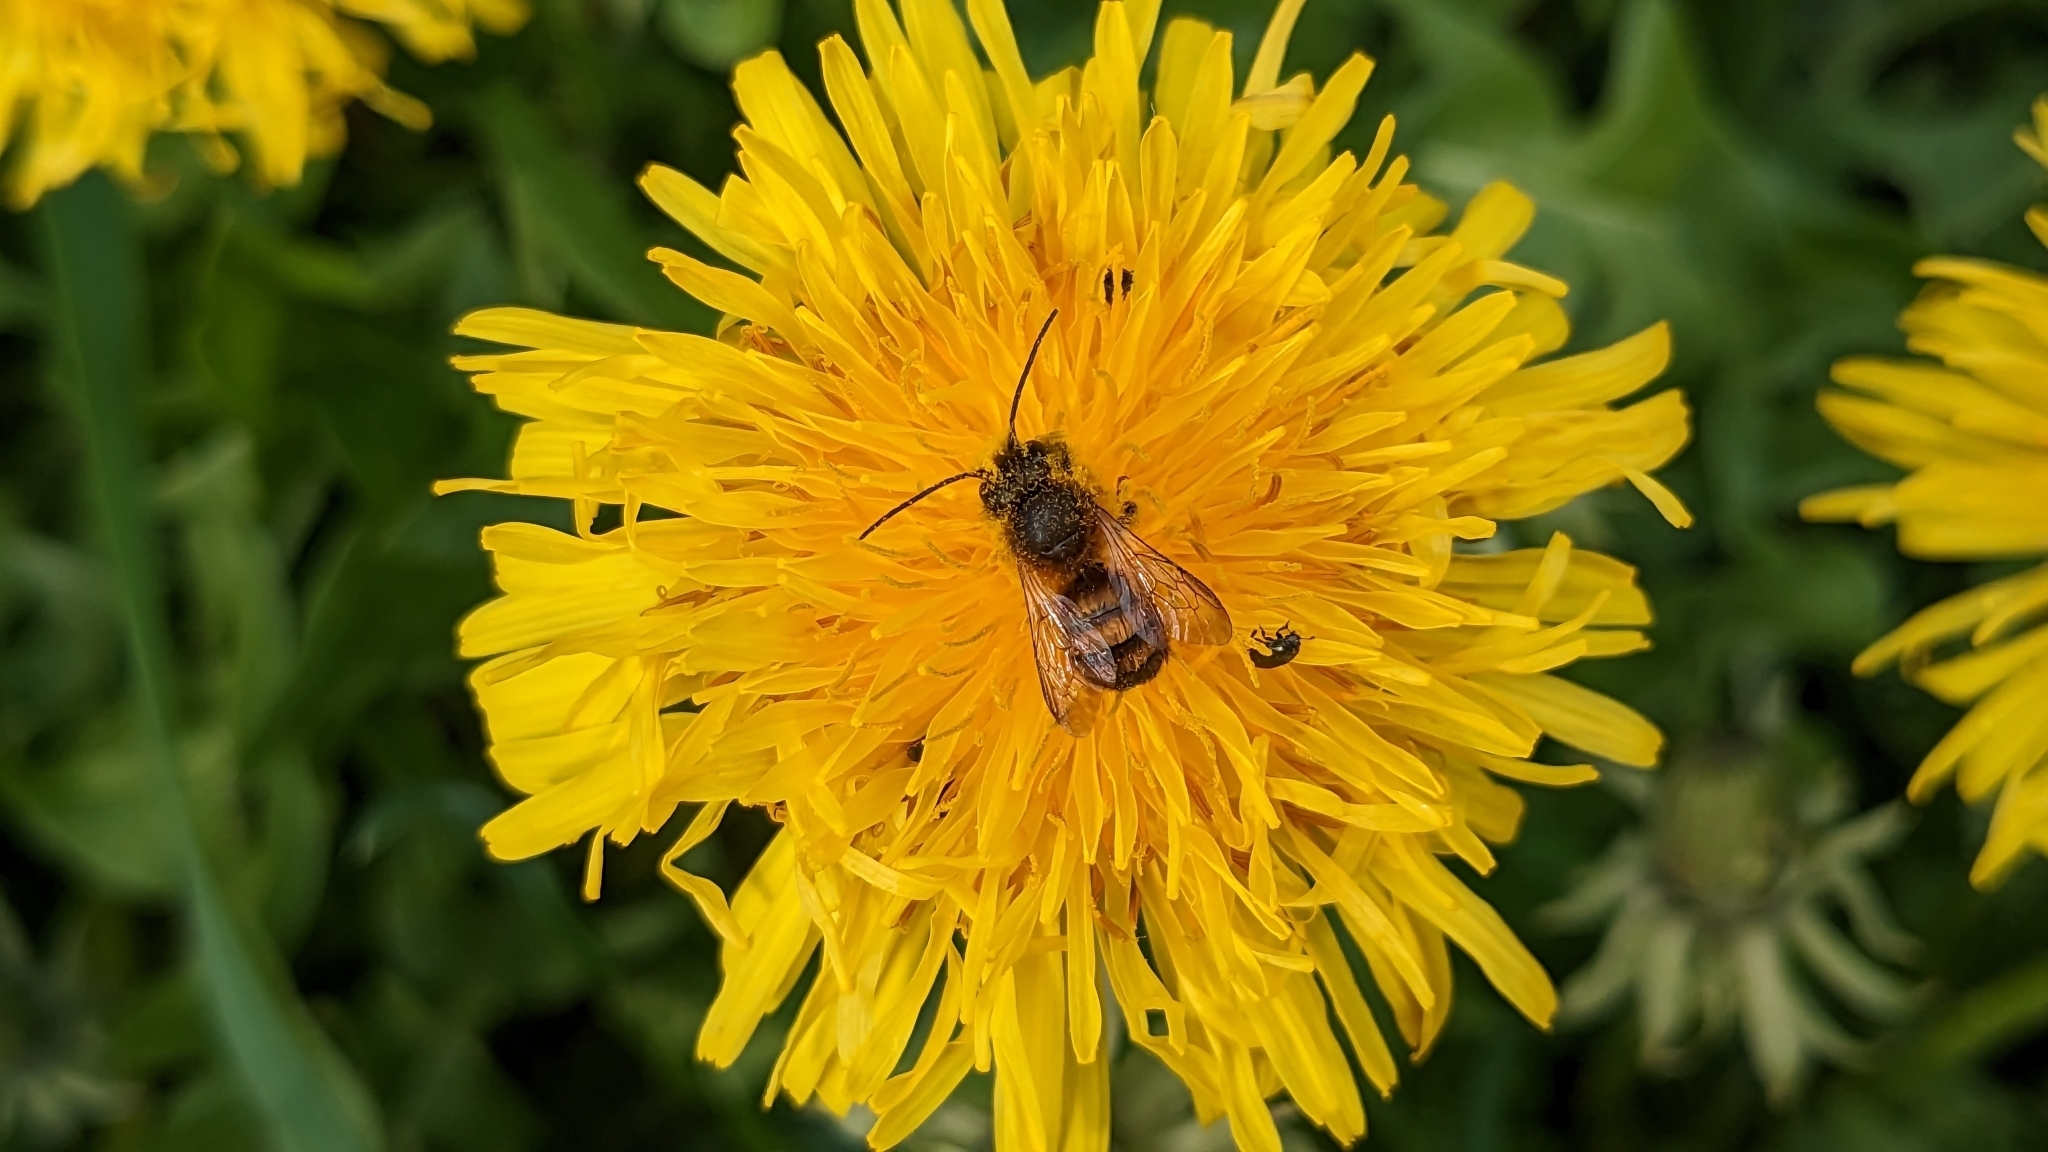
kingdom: Animalia
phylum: Arthropoda
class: Insecta
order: Hymenoptera
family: Megachilidae
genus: Osmia
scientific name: Osmia bicornis
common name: Red mason bee
